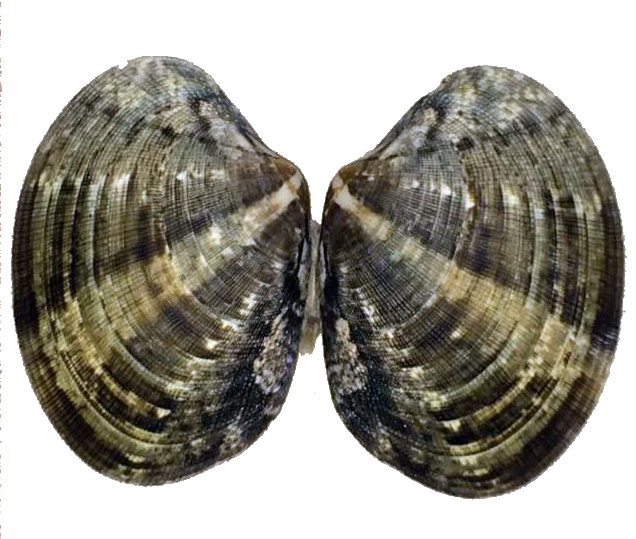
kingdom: Animalia
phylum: Mollusca
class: Bivalvia
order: Venerida
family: Veneridae
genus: Ruditapes
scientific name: Ruditapes philippinarum
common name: Manila clam
